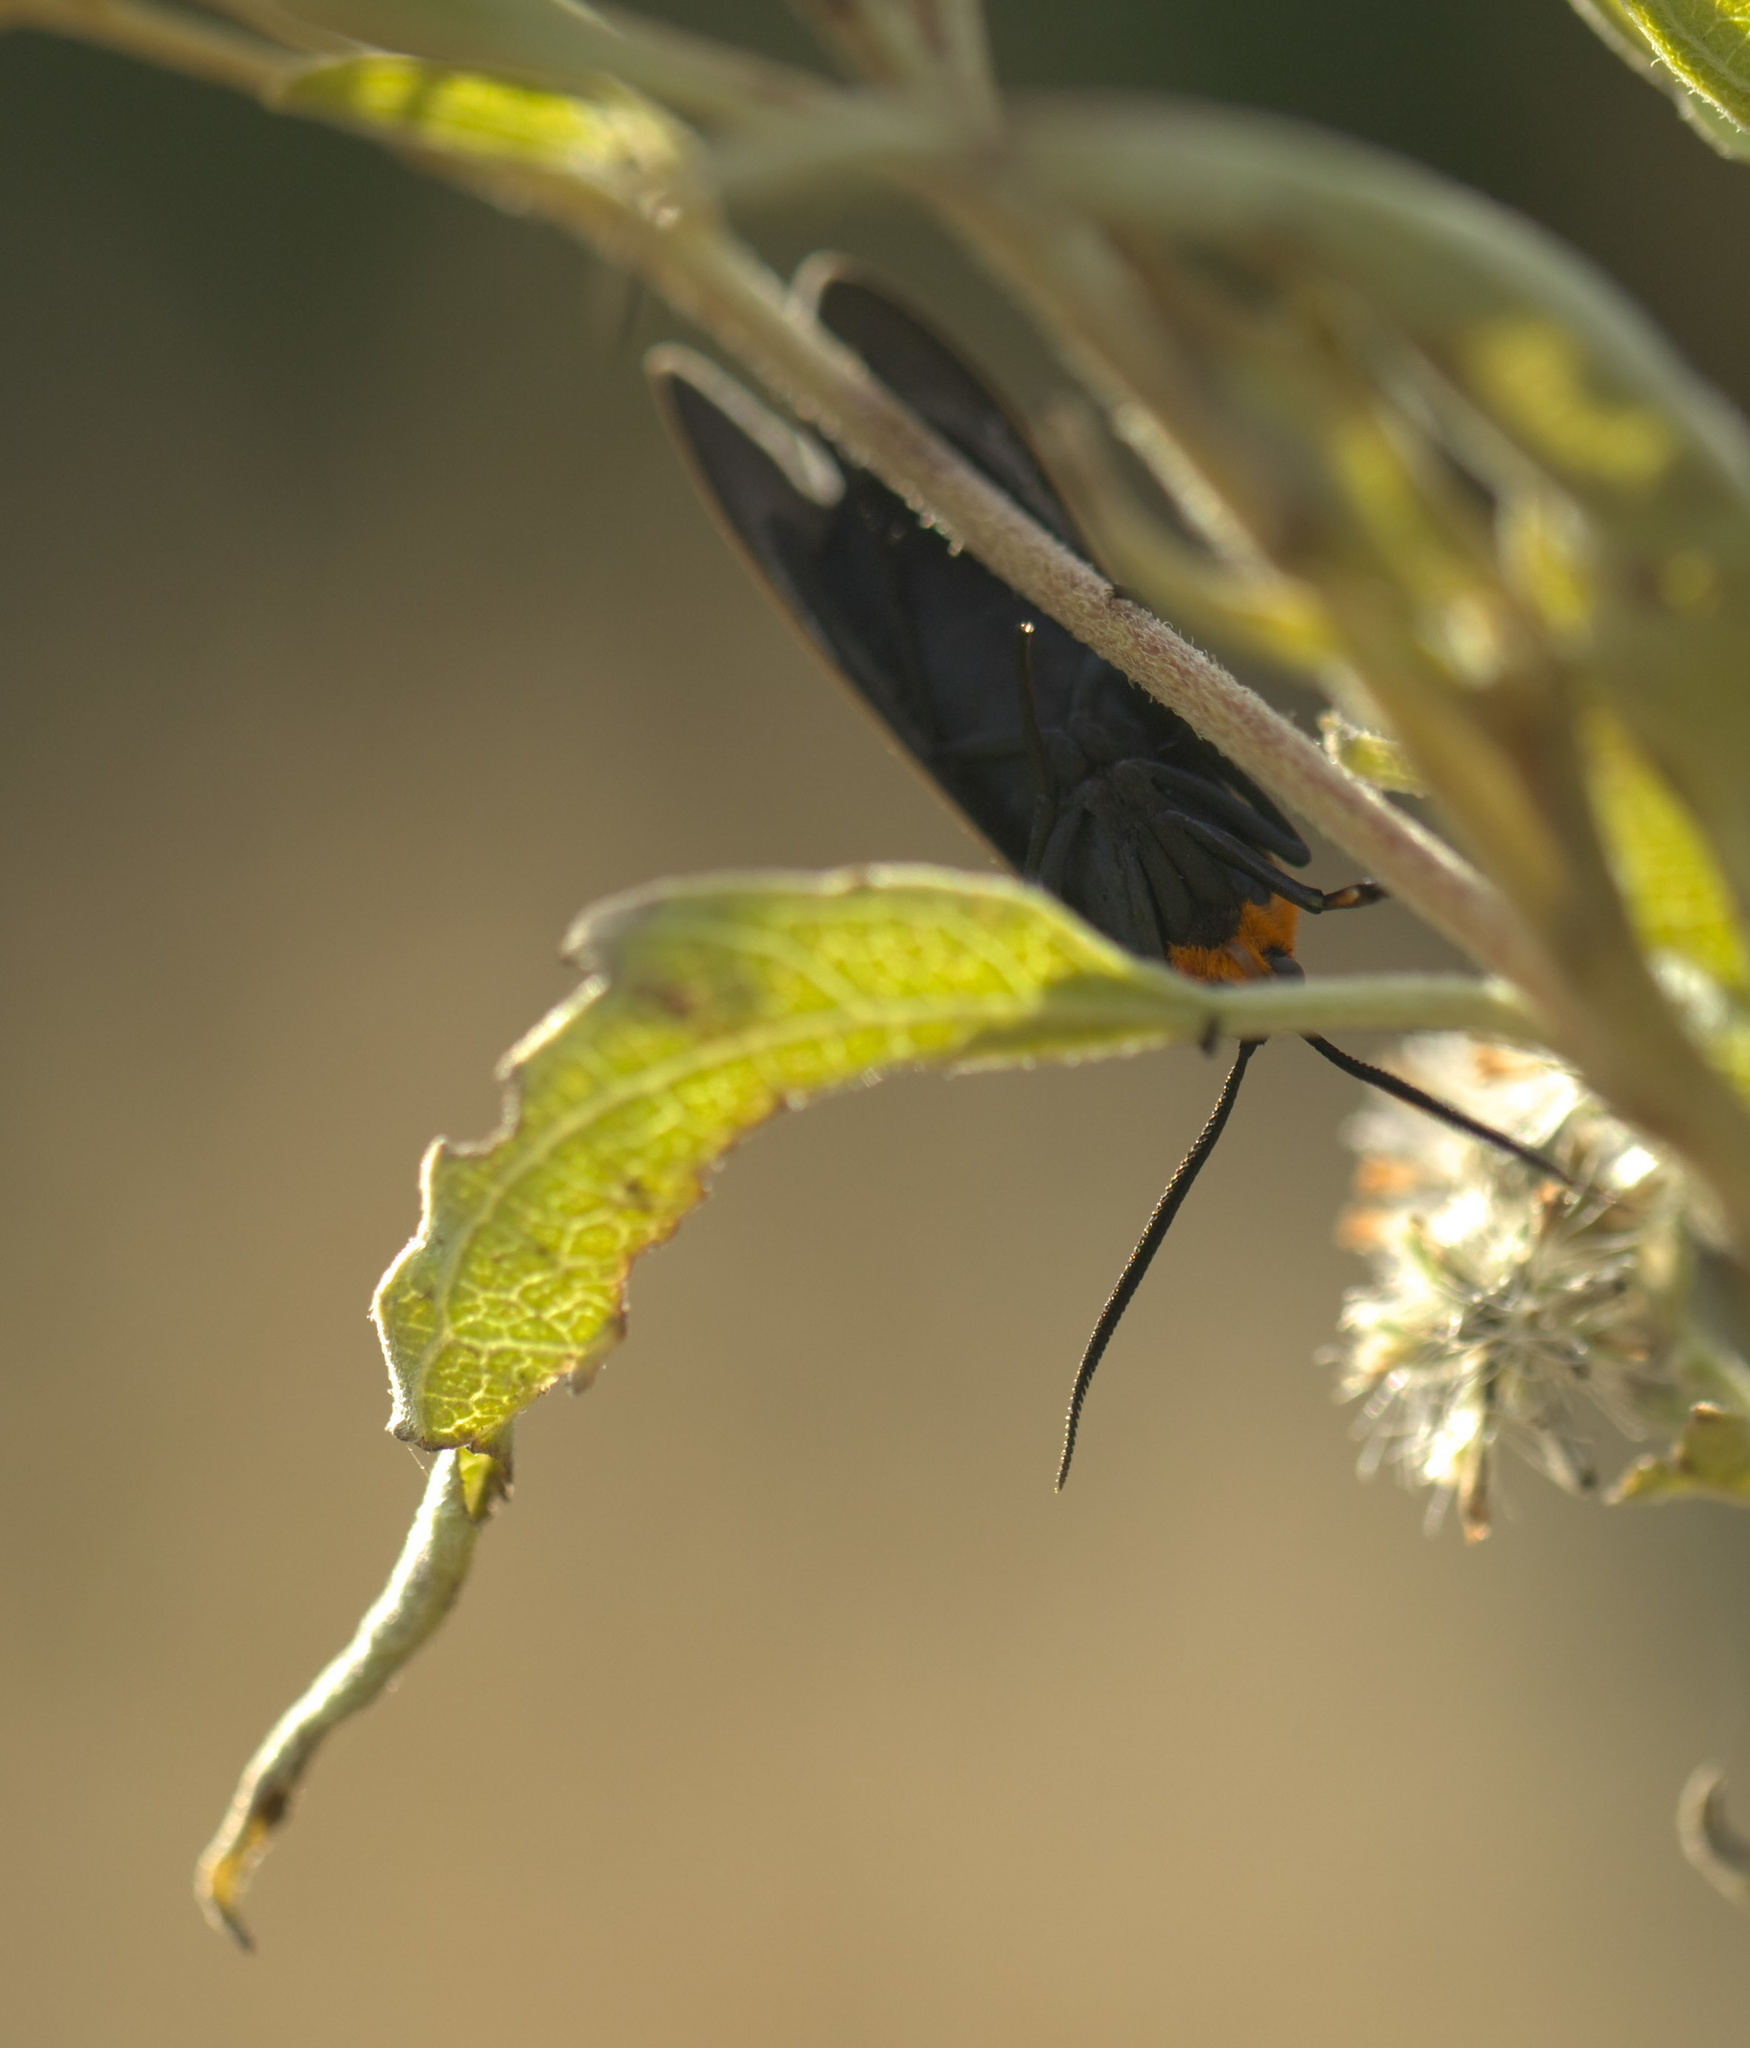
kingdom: Animalia
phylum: Arthropoda
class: Insecta
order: Lepidoptera
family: Erebidae
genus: Cisseps
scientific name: Cisseps fulvicollis
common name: Yellow-collared scape moth
